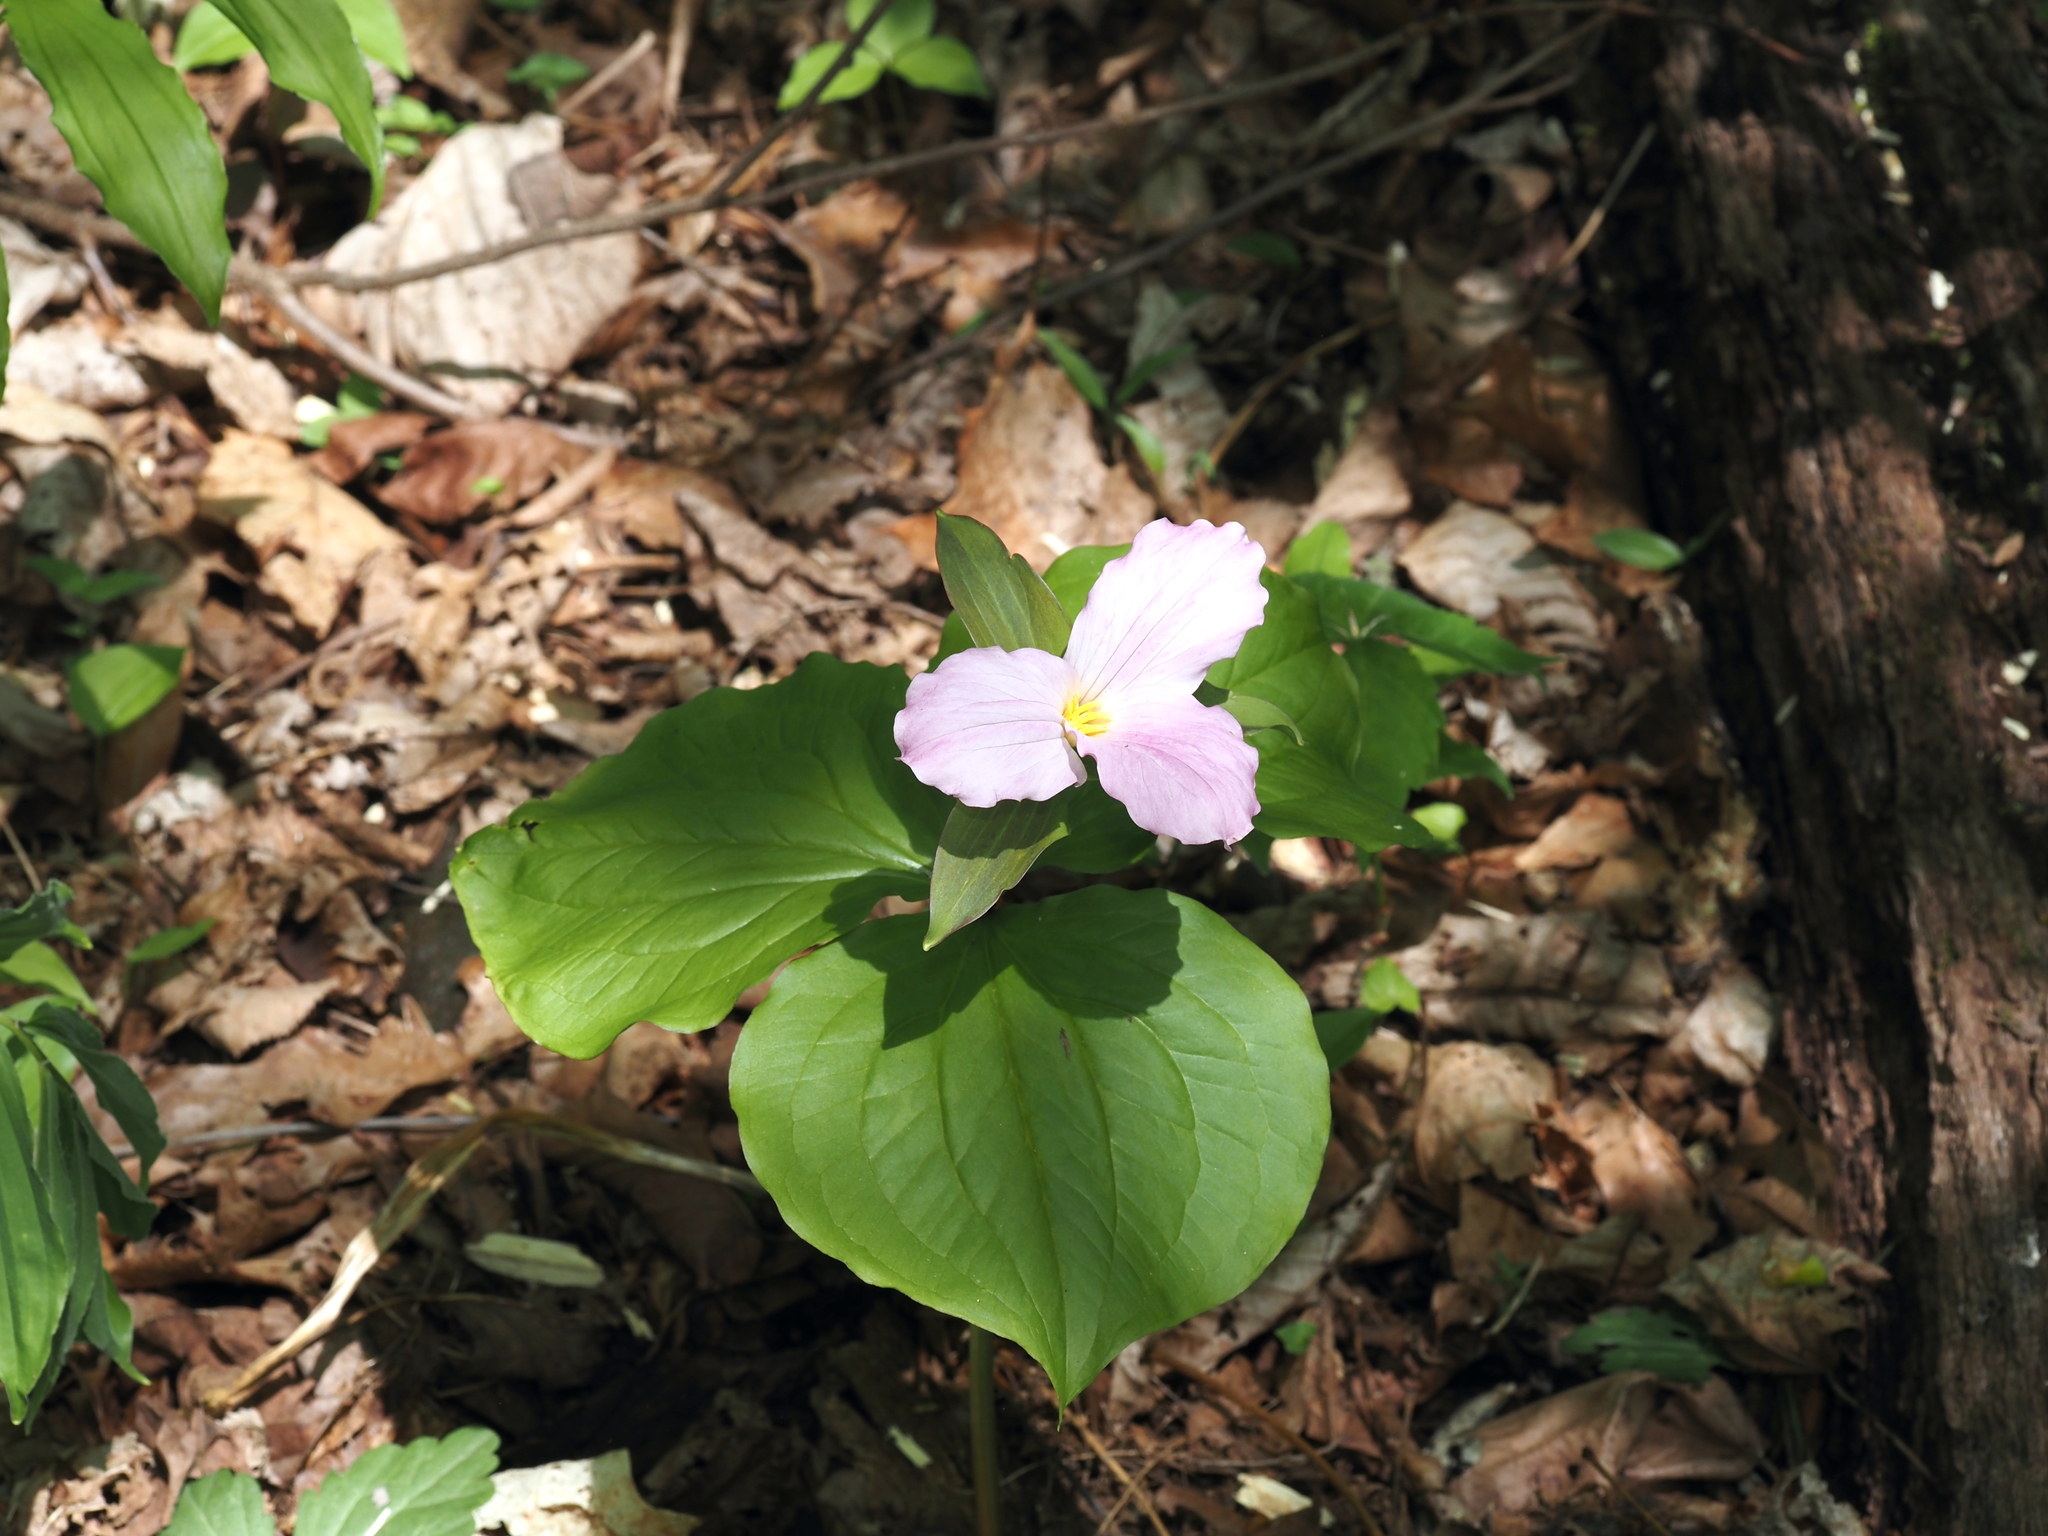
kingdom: Plantae
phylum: Tracheophyta
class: Liliopsida
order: Liliales
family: Melanthiaceae
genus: Trillium
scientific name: Trillium grandiflorum
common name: Great white trillium
